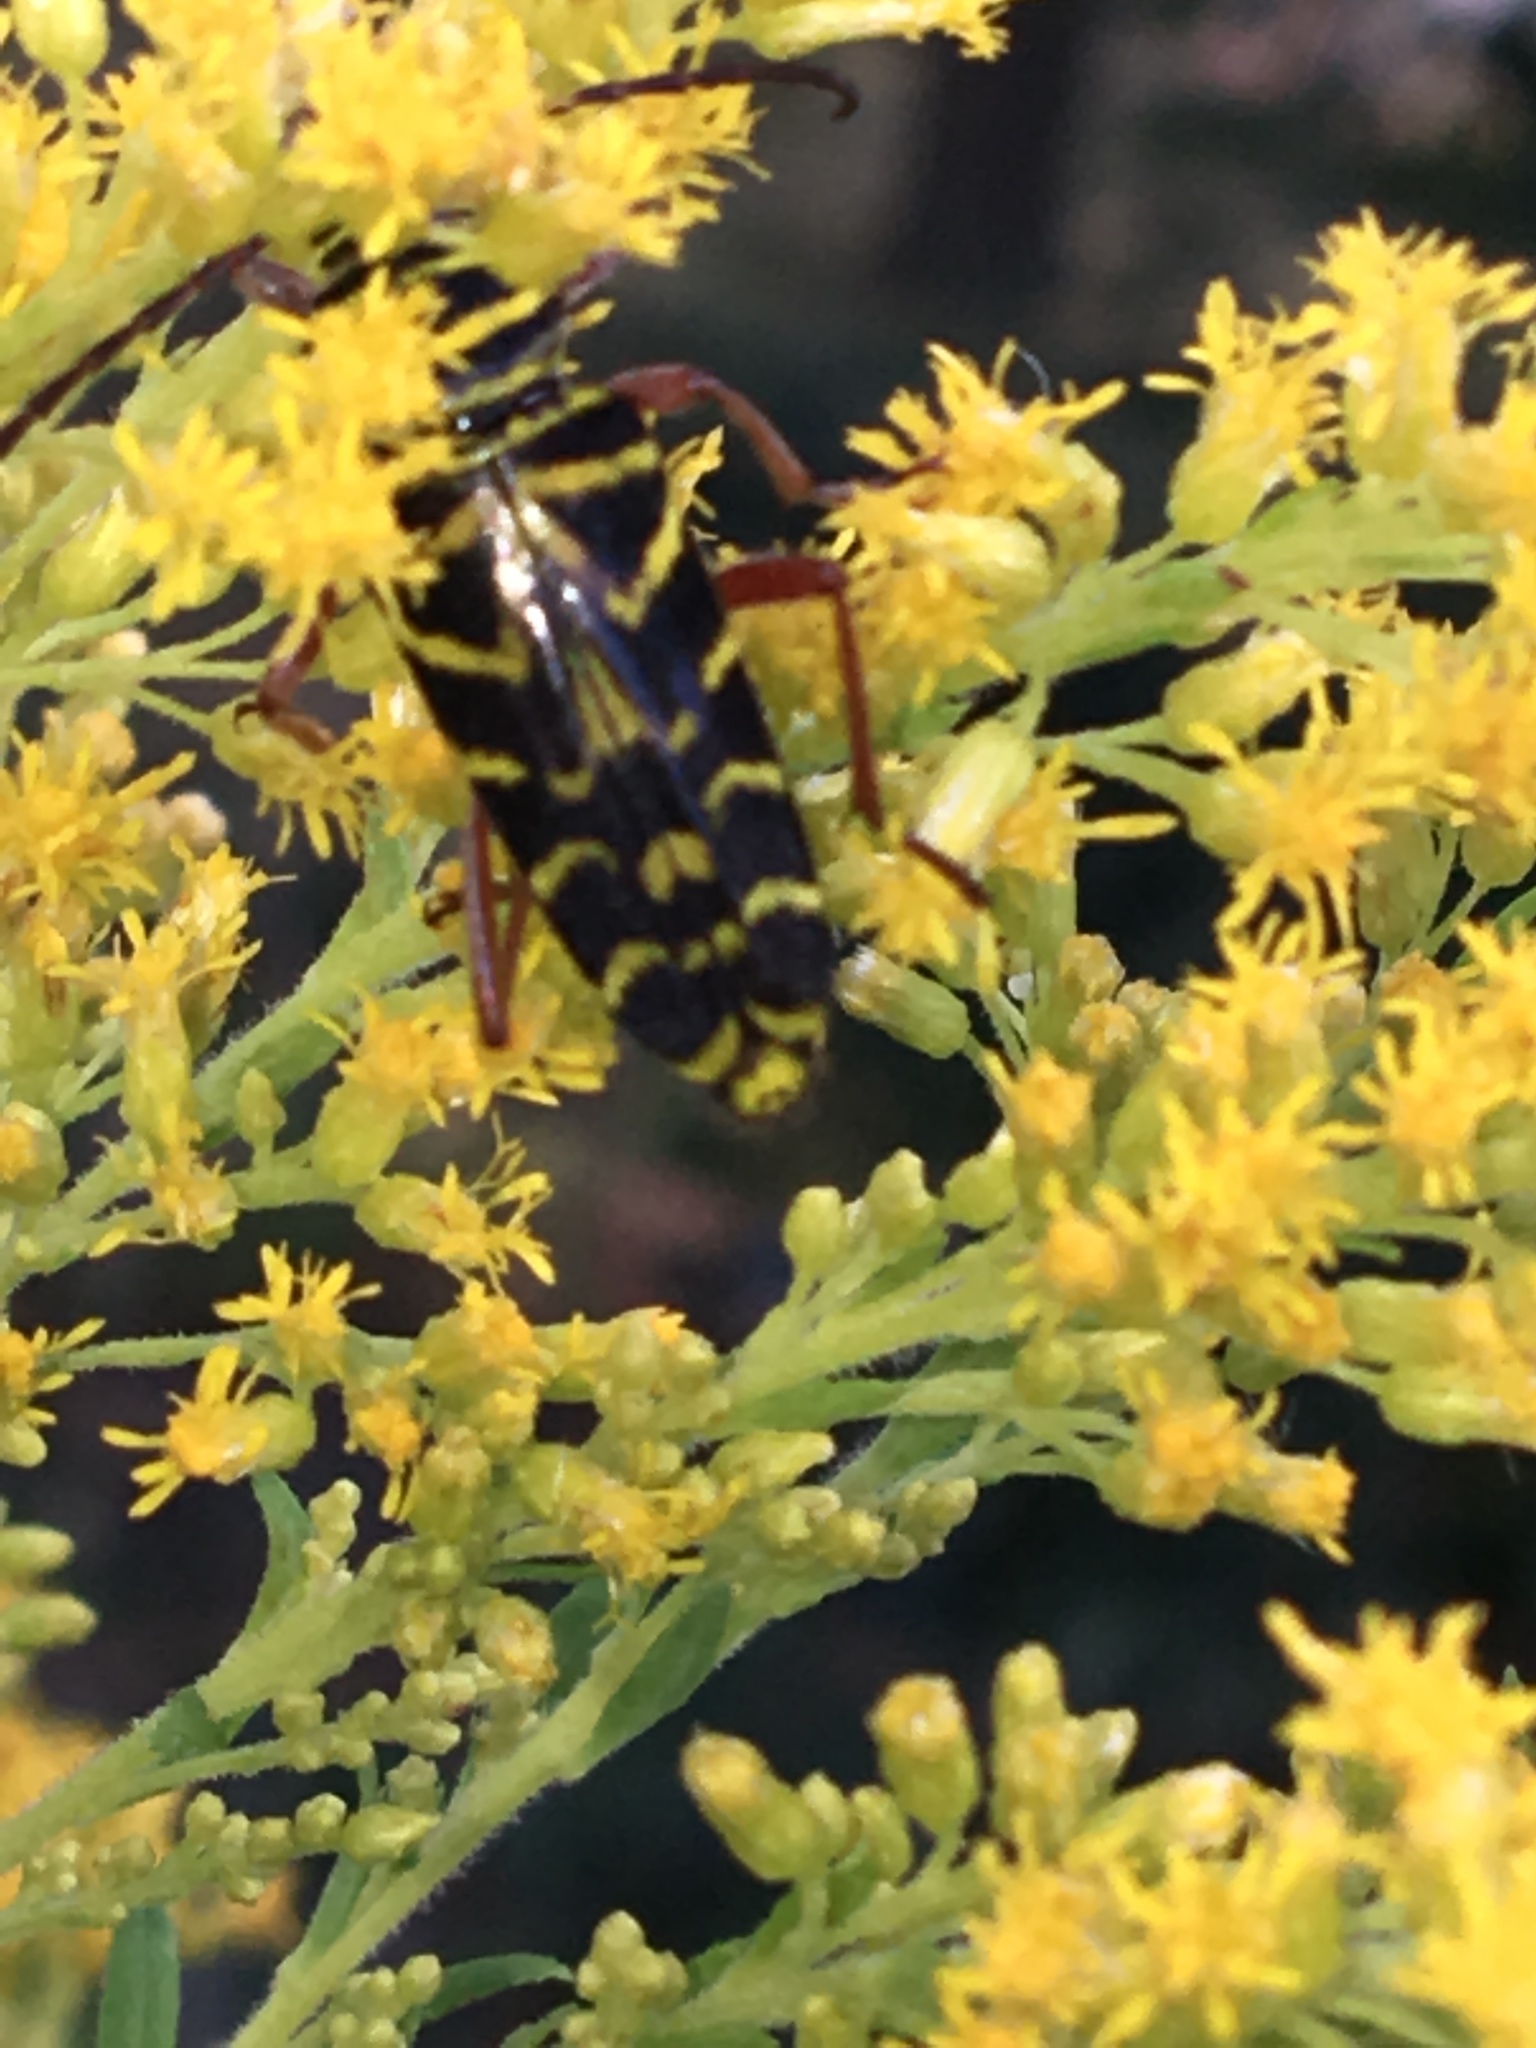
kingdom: Animalia
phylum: Arthropoda
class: Insecta
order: Coleoptera
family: Cerambycidae
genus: Megacyllene
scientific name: Megacyllene robiniae
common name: Locust borer
